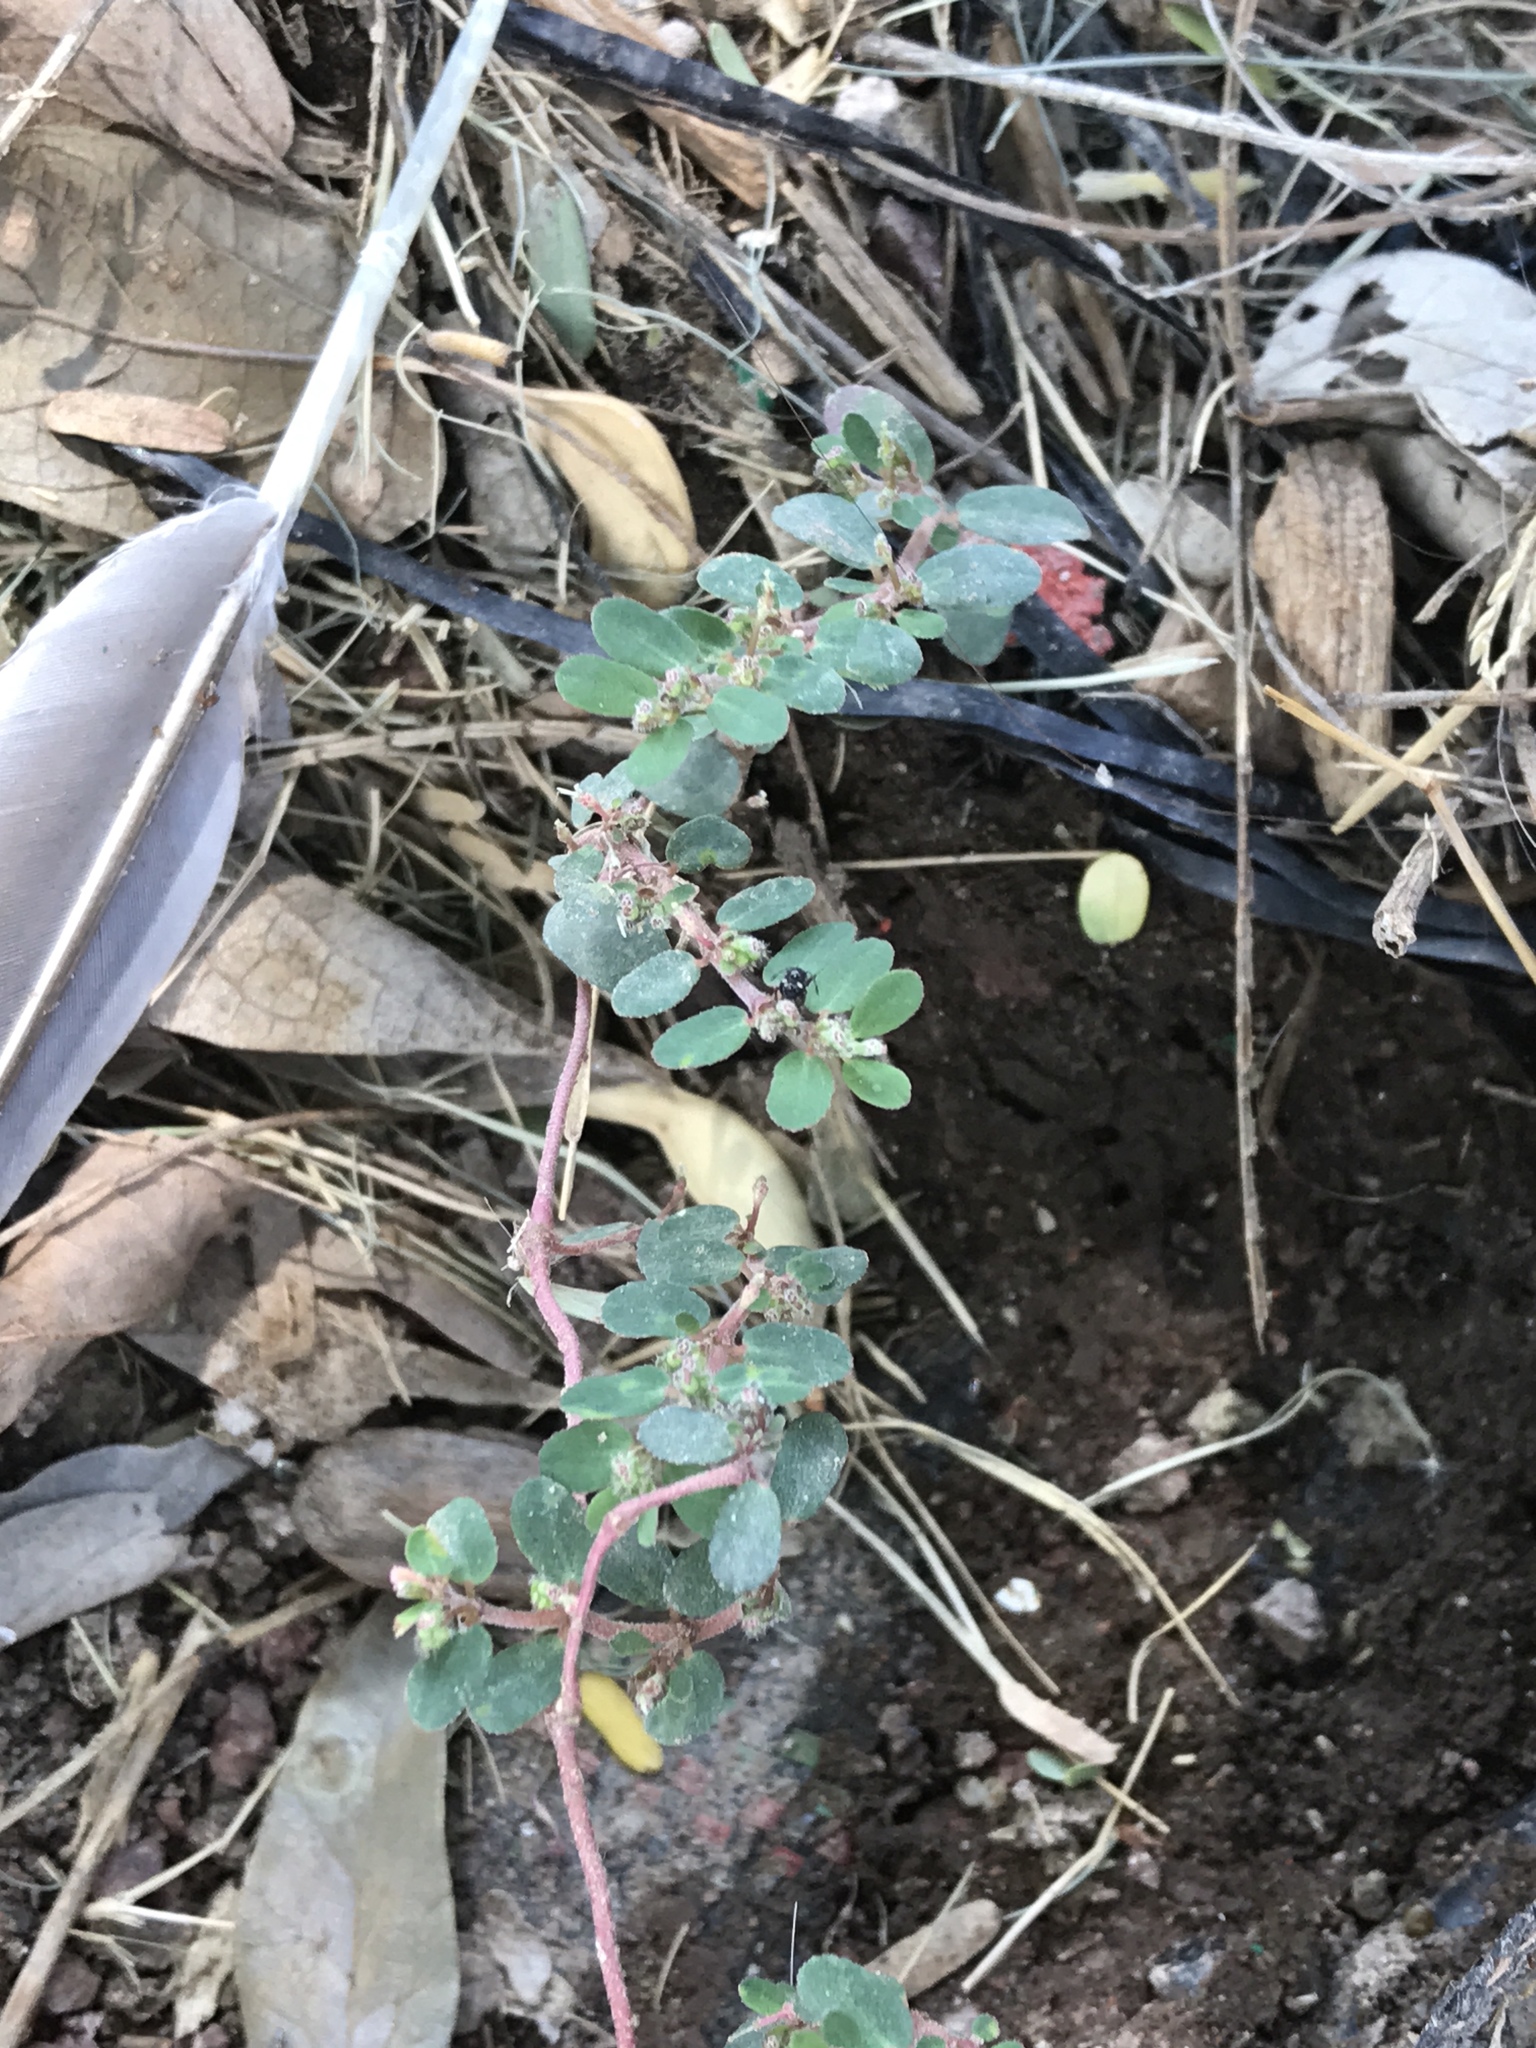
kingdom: Plantae
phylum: Tracheophyta
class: Magnoliopsida
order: Malpighiales
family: Euphorbiaceae
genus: Euphorbia
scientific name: Euphorbia prostrata
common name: Prostrate sandmat
